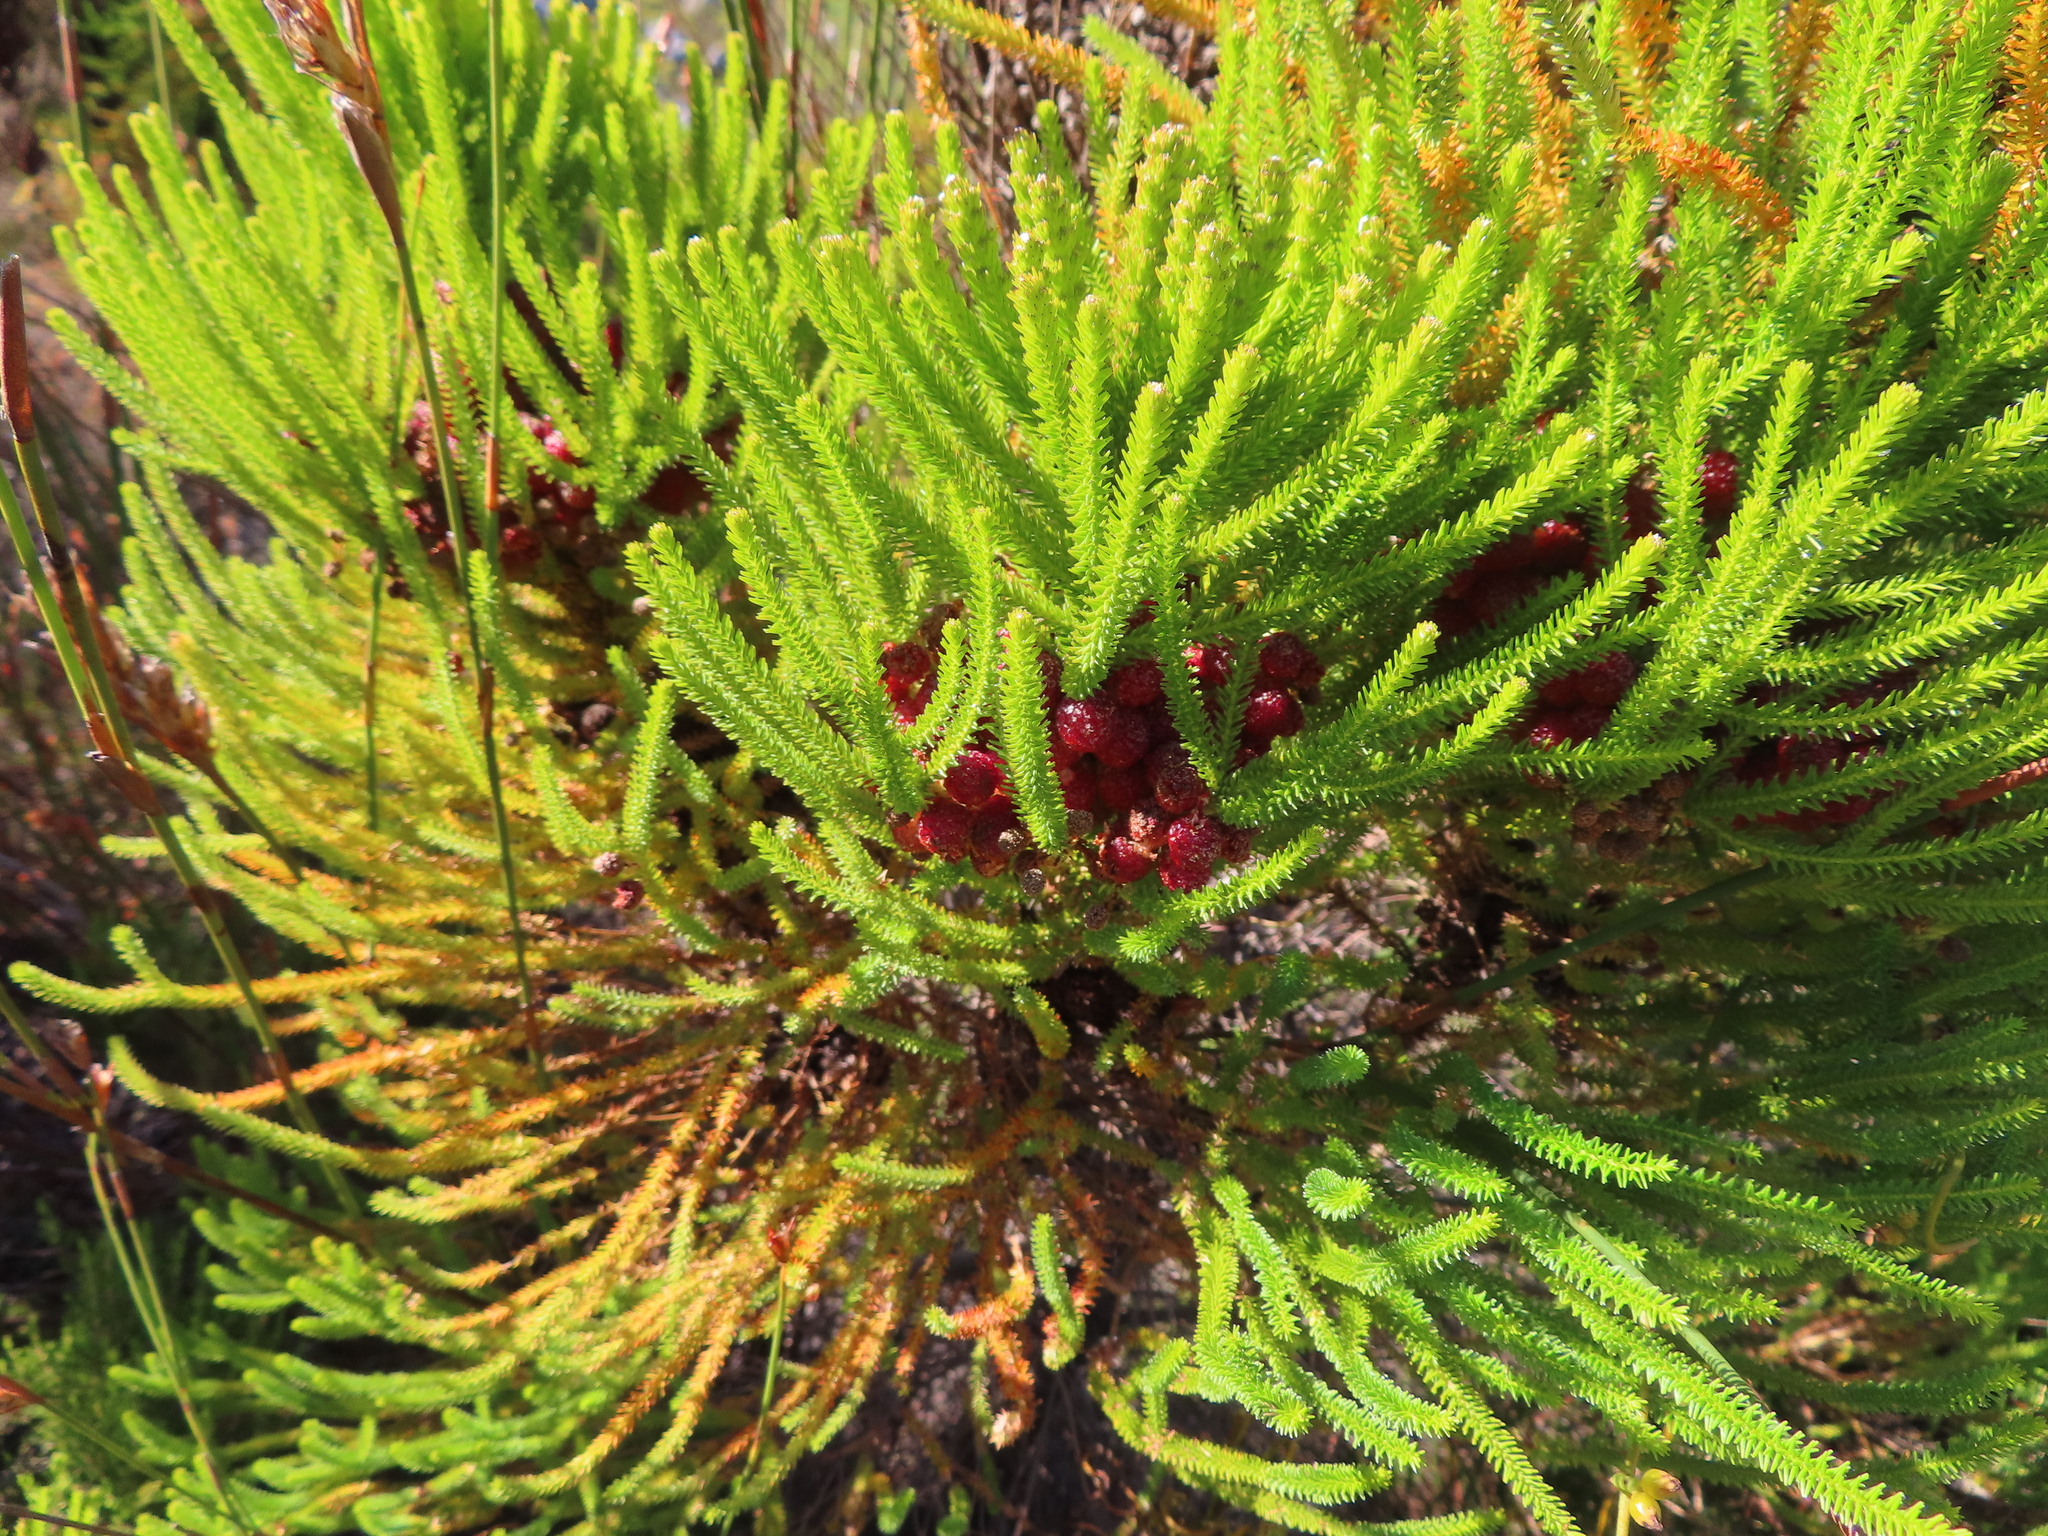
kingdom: Plantae
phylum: Tracheophyta
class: Magnoliopsida
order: Bruniales
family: Bruniaceae
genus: Berzelia
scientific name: Berzelia abrotanoides
